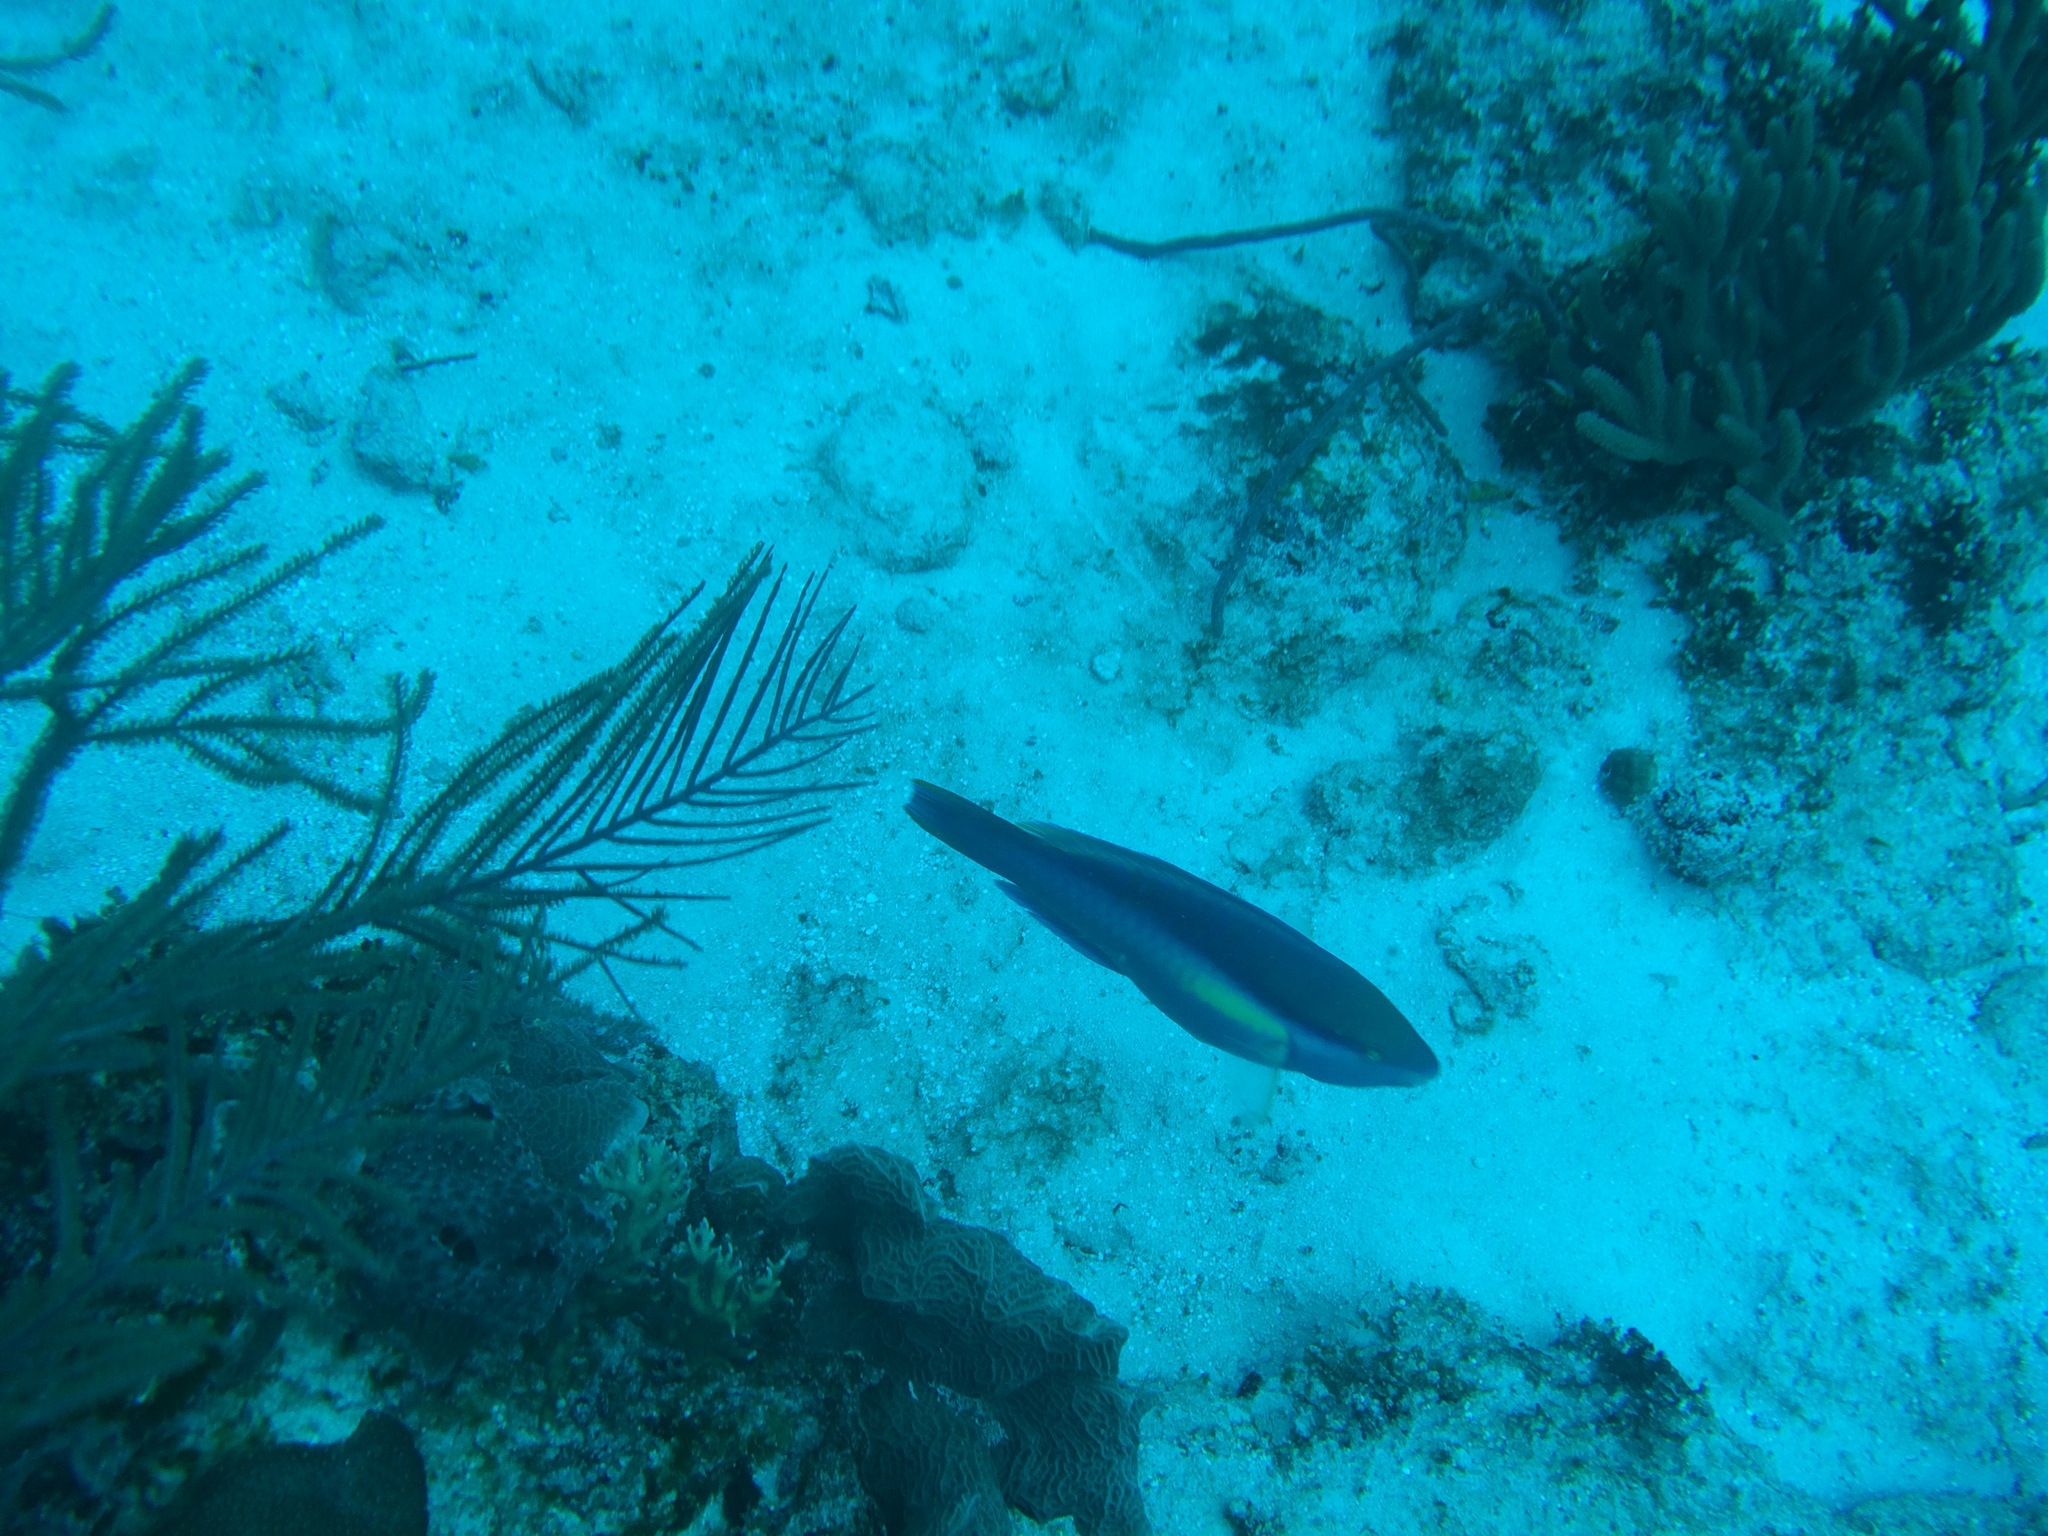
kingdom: Animalia
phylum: Chordata
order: Perciformes
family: Scaridae
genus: Scarus
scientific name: Scarus taeniopterus
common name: Princess parrotfish
